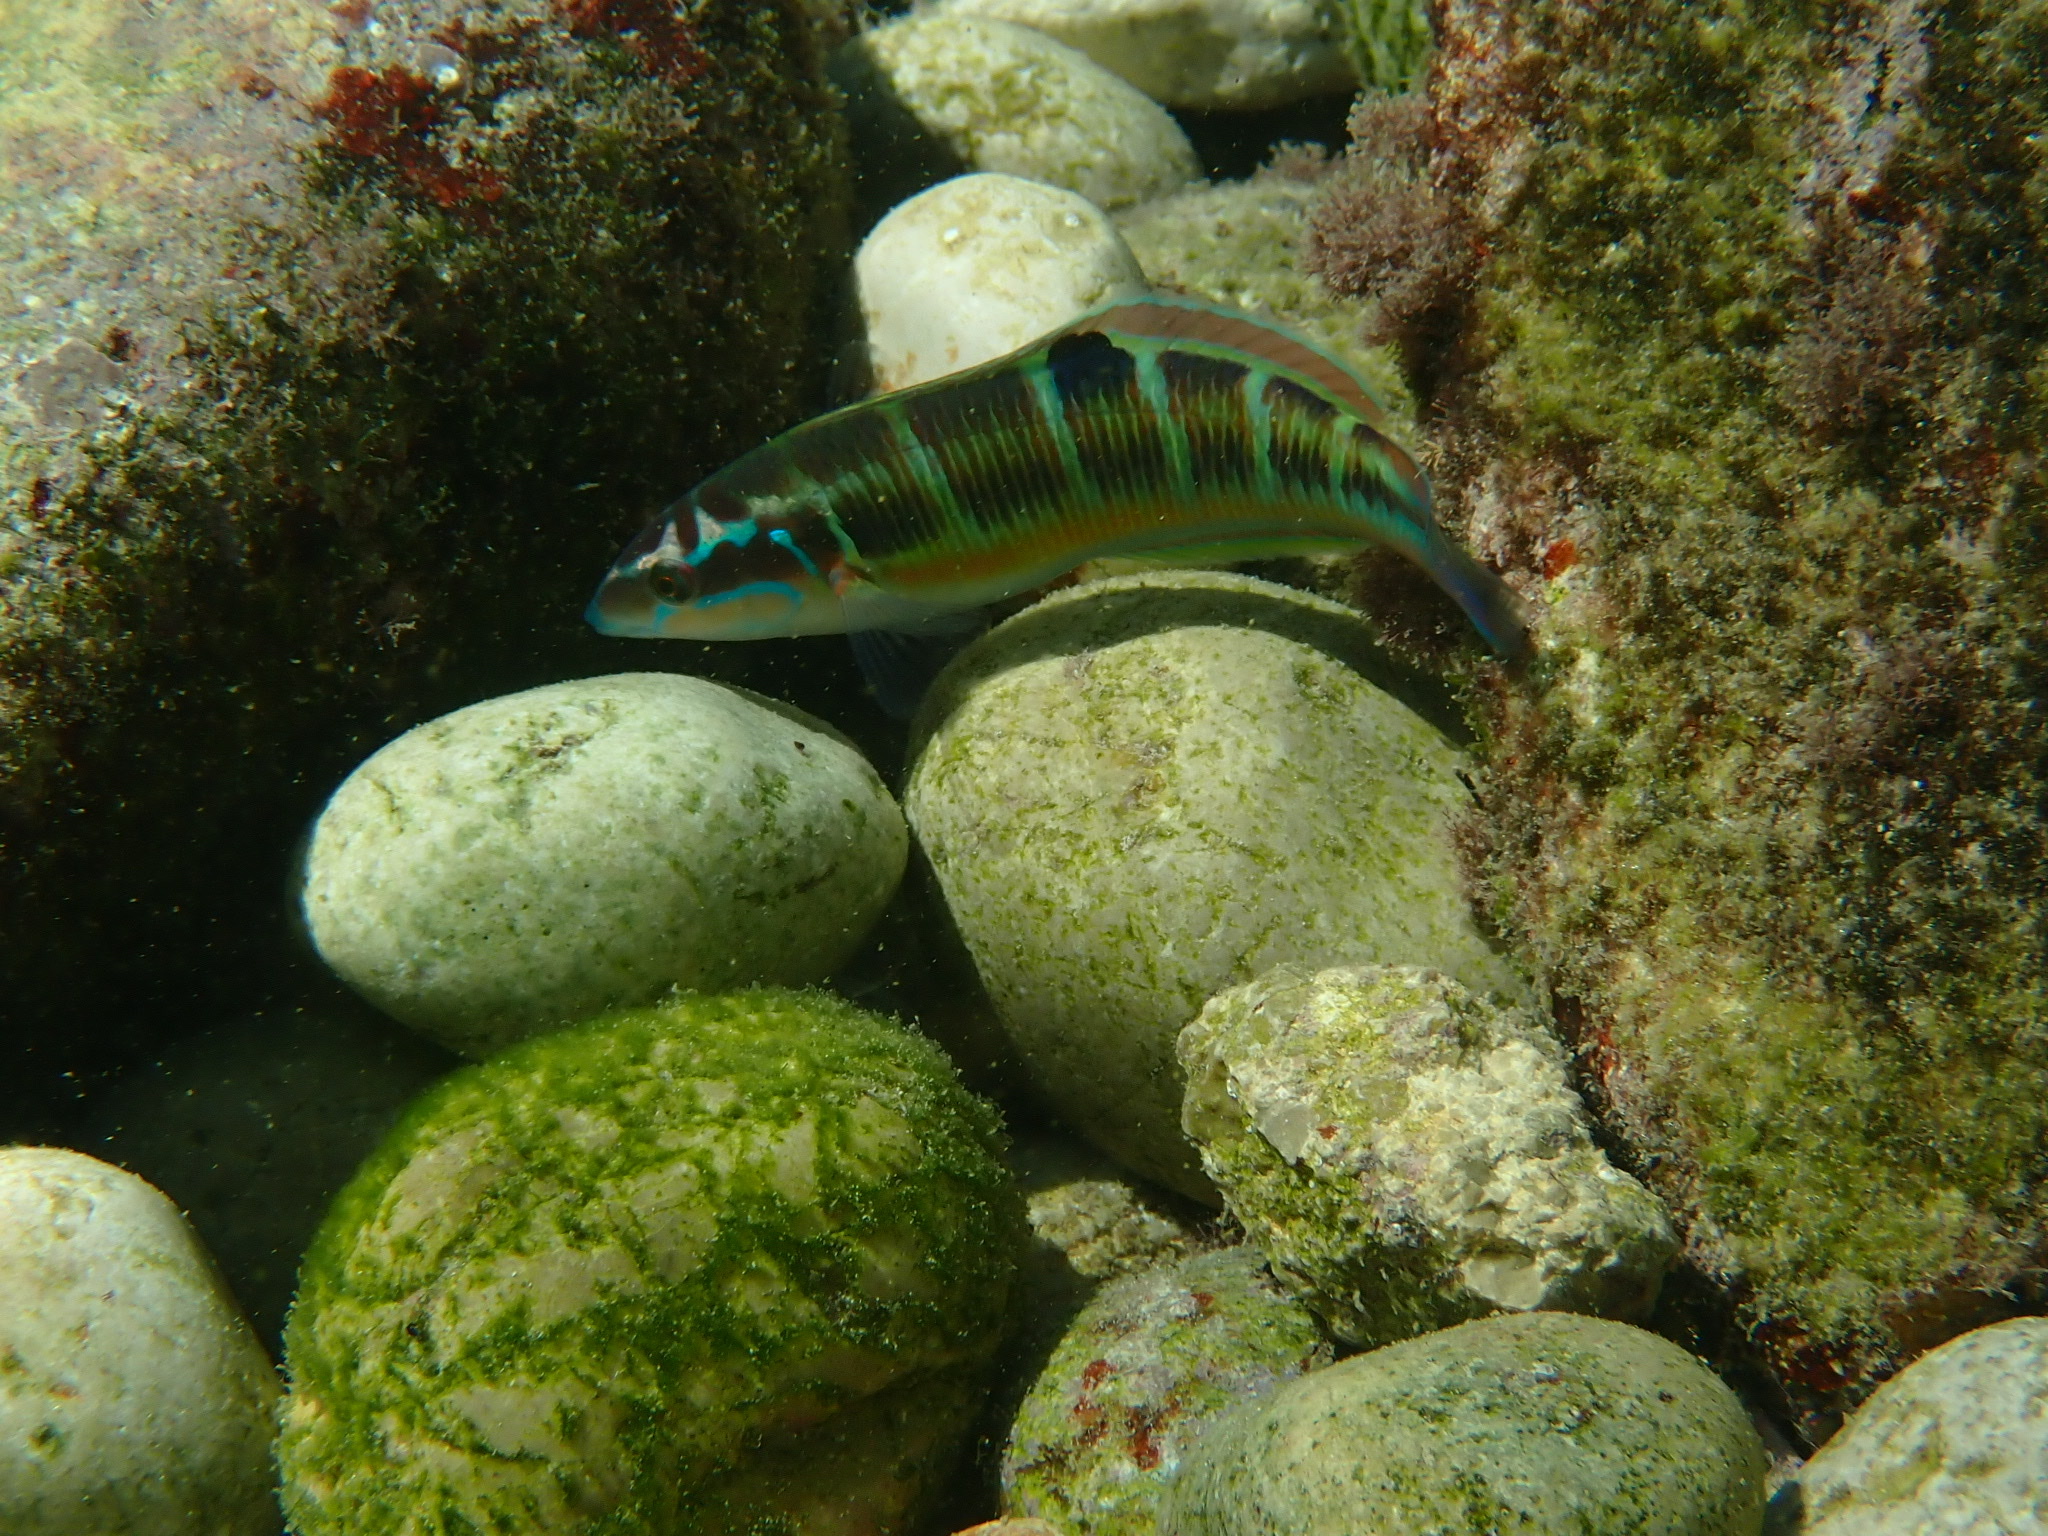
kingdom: Animalia
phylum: Chordata
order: Perciformes
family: Labridae
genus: Thalassoma
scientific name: Thalassoma pavo
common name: Ornate wrasse
